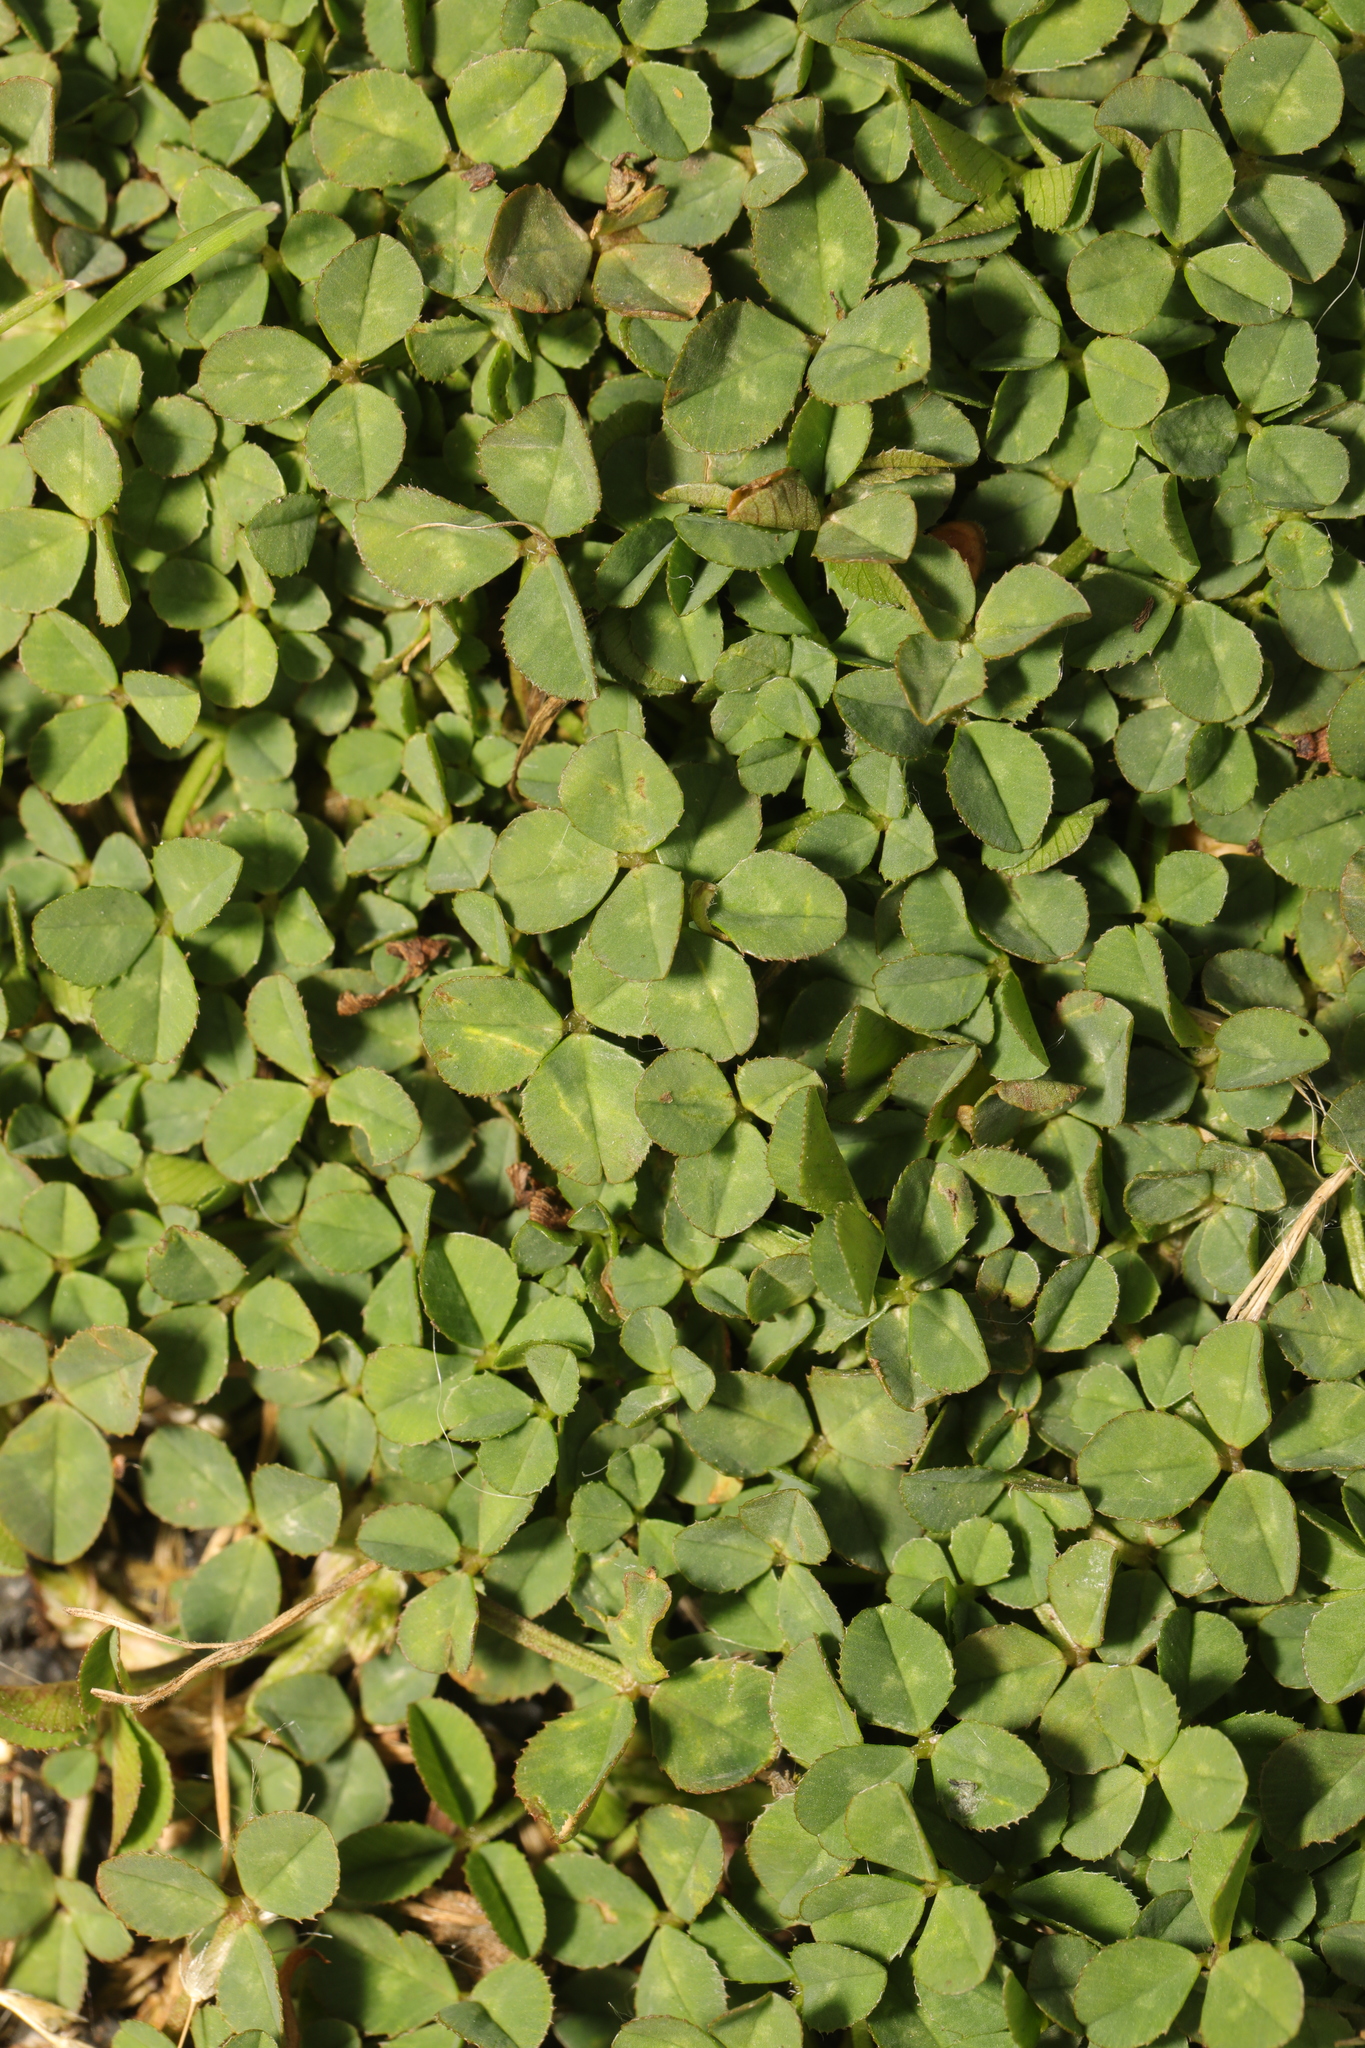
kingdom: Plantae
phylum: Tracheophyta
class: Magnoliopsida
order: Fabales
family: Fabaceae
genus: Trifolium
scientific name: Trifolium repens
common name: White clover
